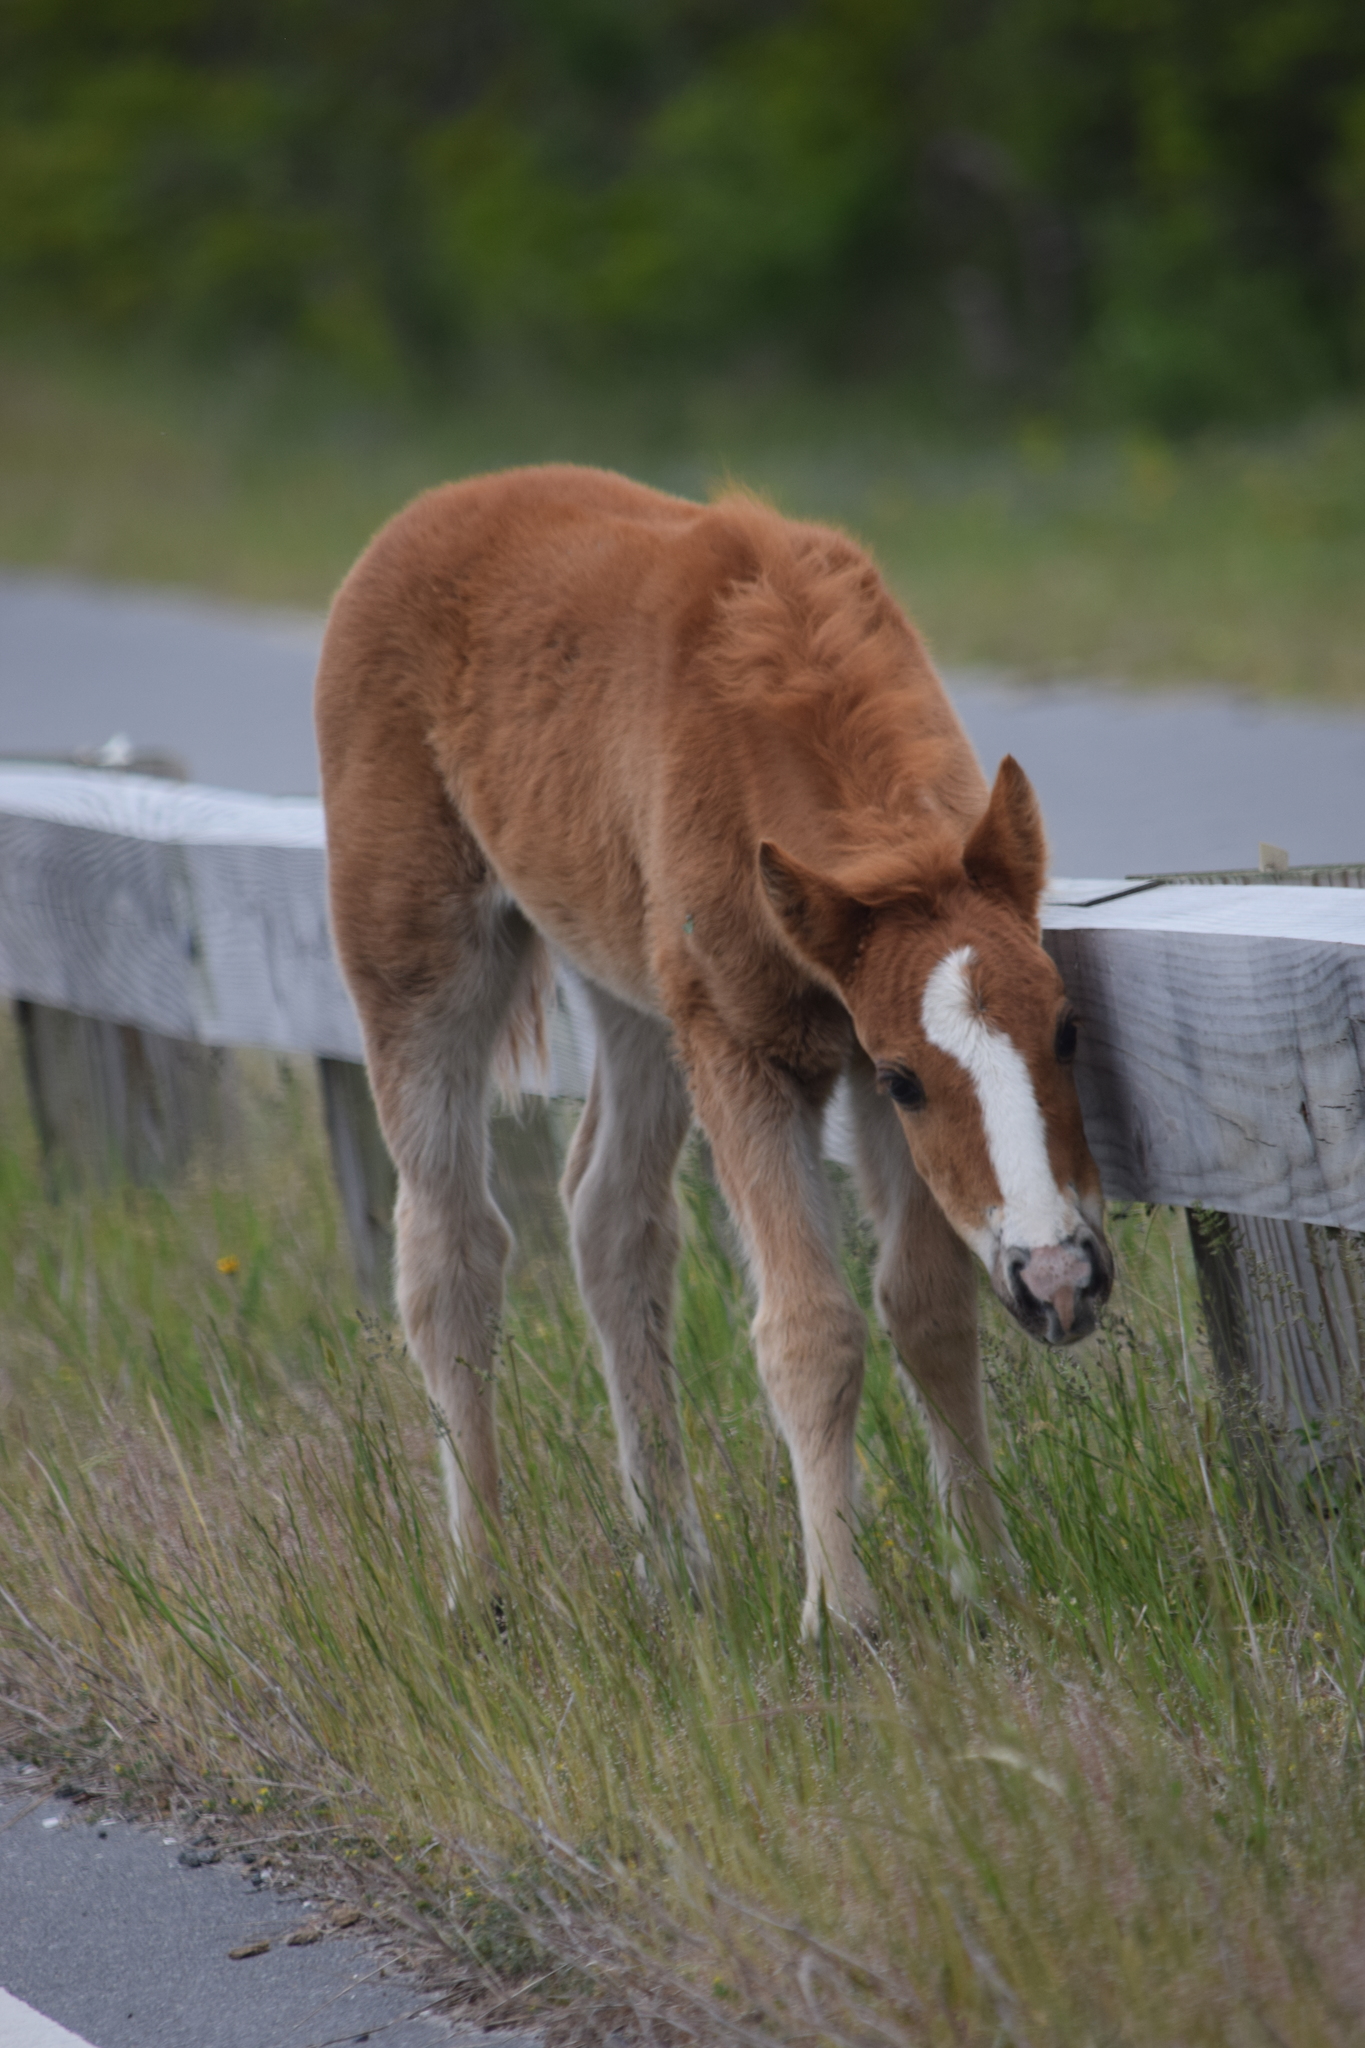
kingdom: Animalia
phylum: Chordata
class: Mammalia
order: Perissodactyla
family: Equidae
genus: Equus
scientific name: Equus caballus
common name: Horse
